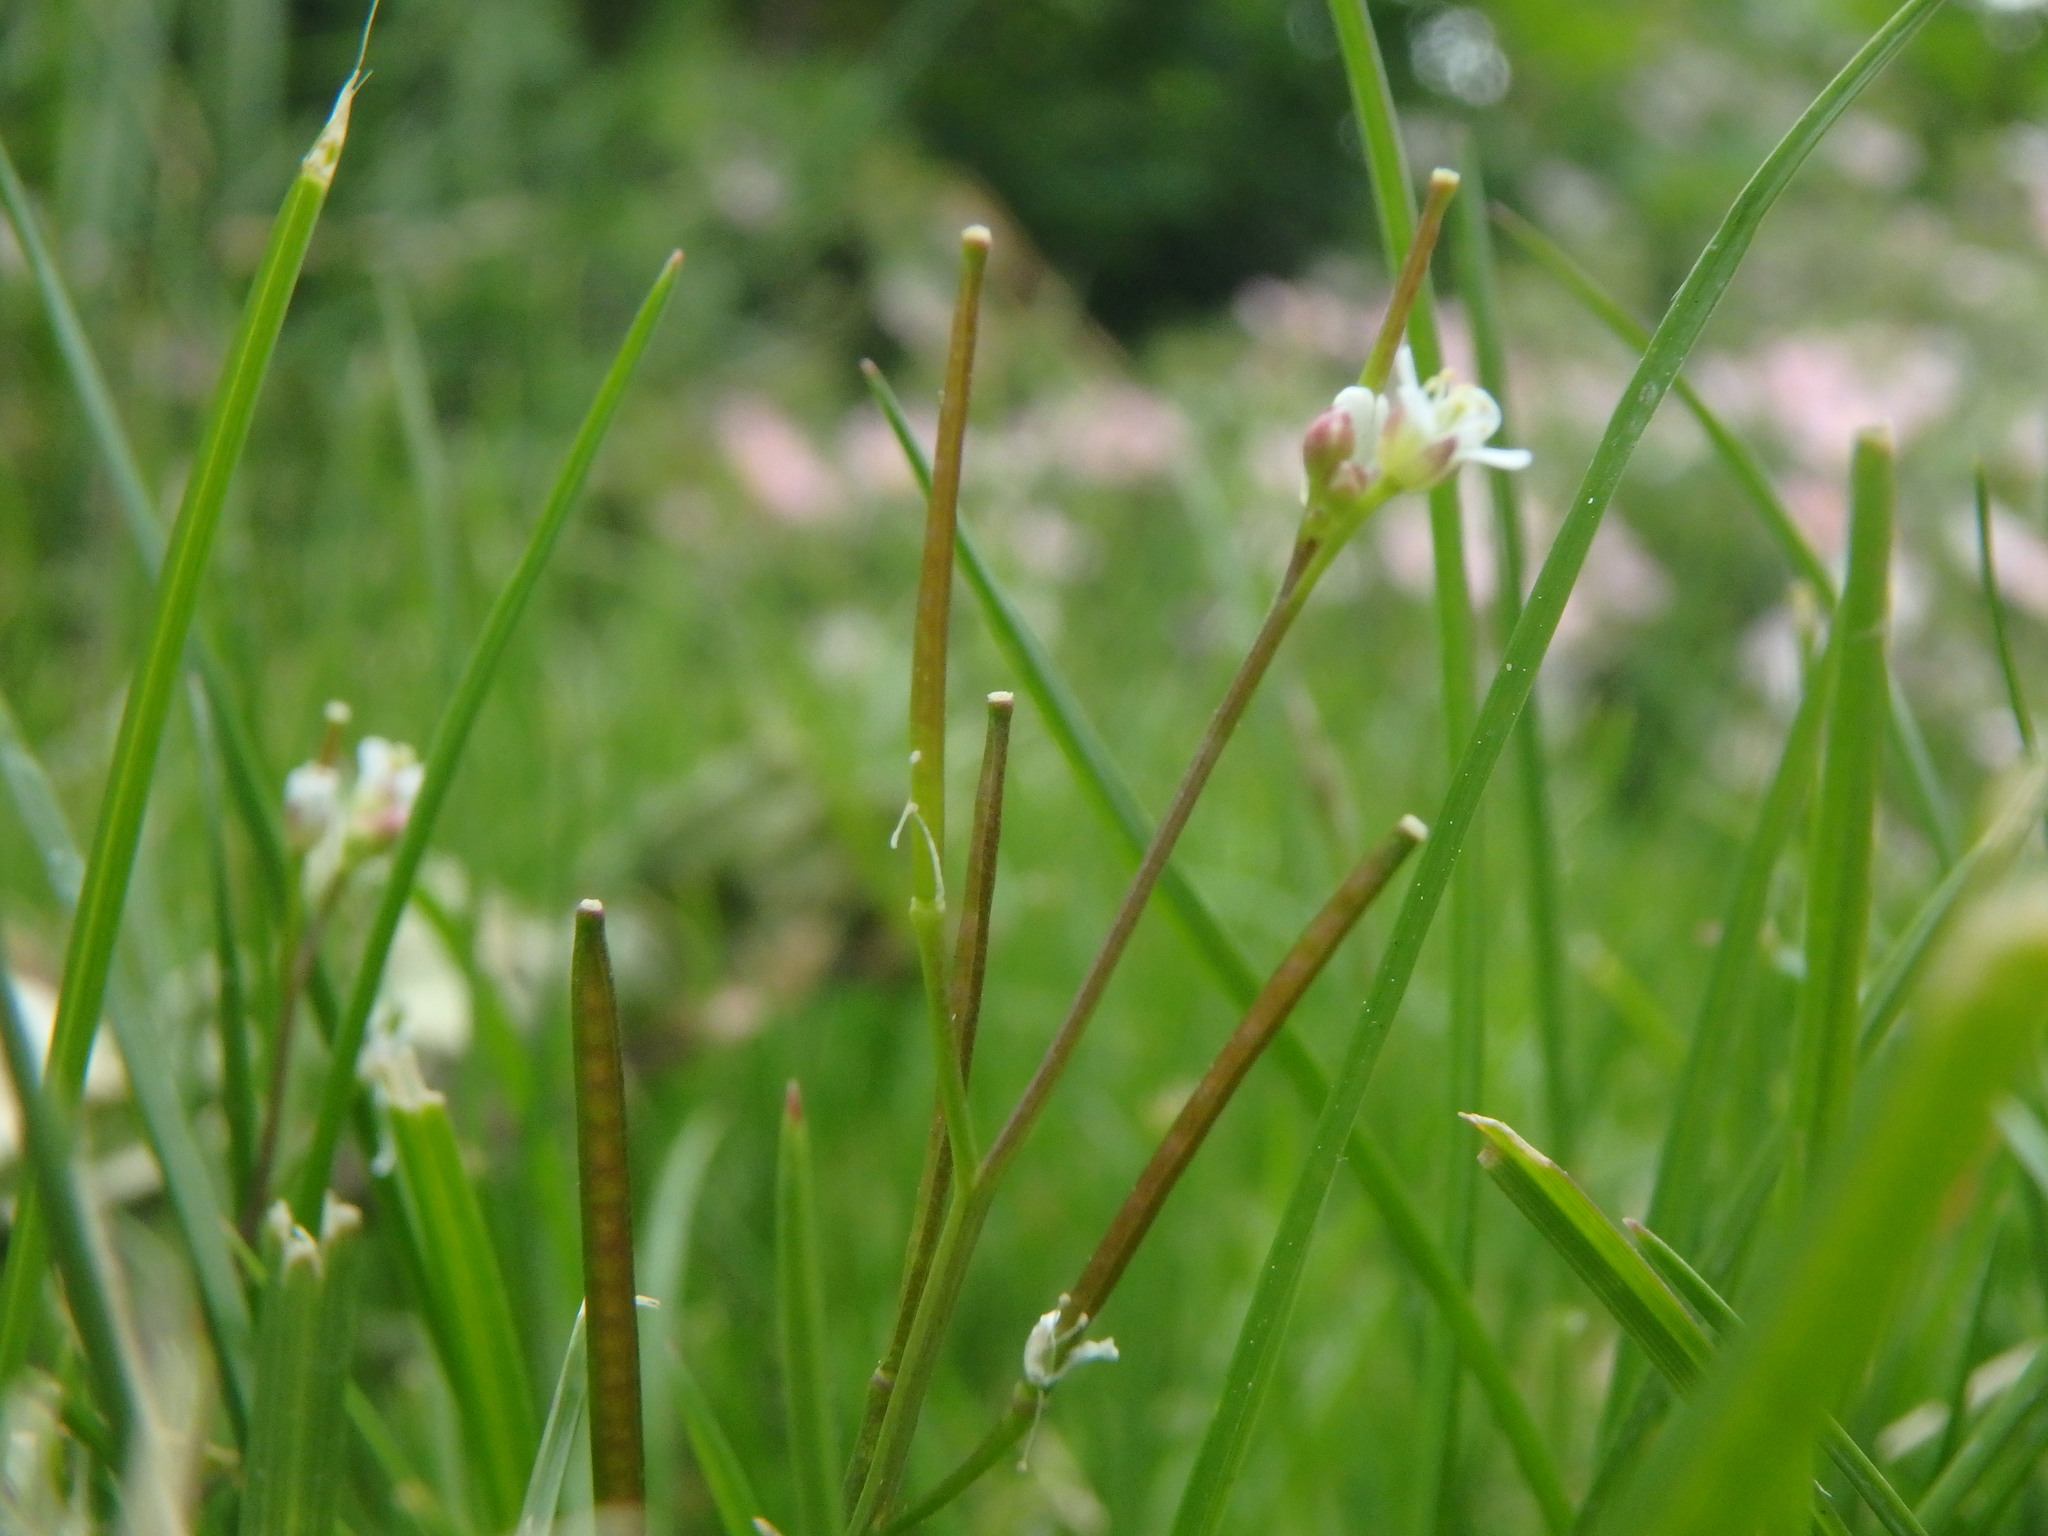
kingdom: Plantae
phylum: Tracheophyta
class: Magnoliopsida
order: Brassicales
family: Brassicaceae
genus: Cardamine
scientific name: Cardamine flexuosa
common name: Woodland bittercress
